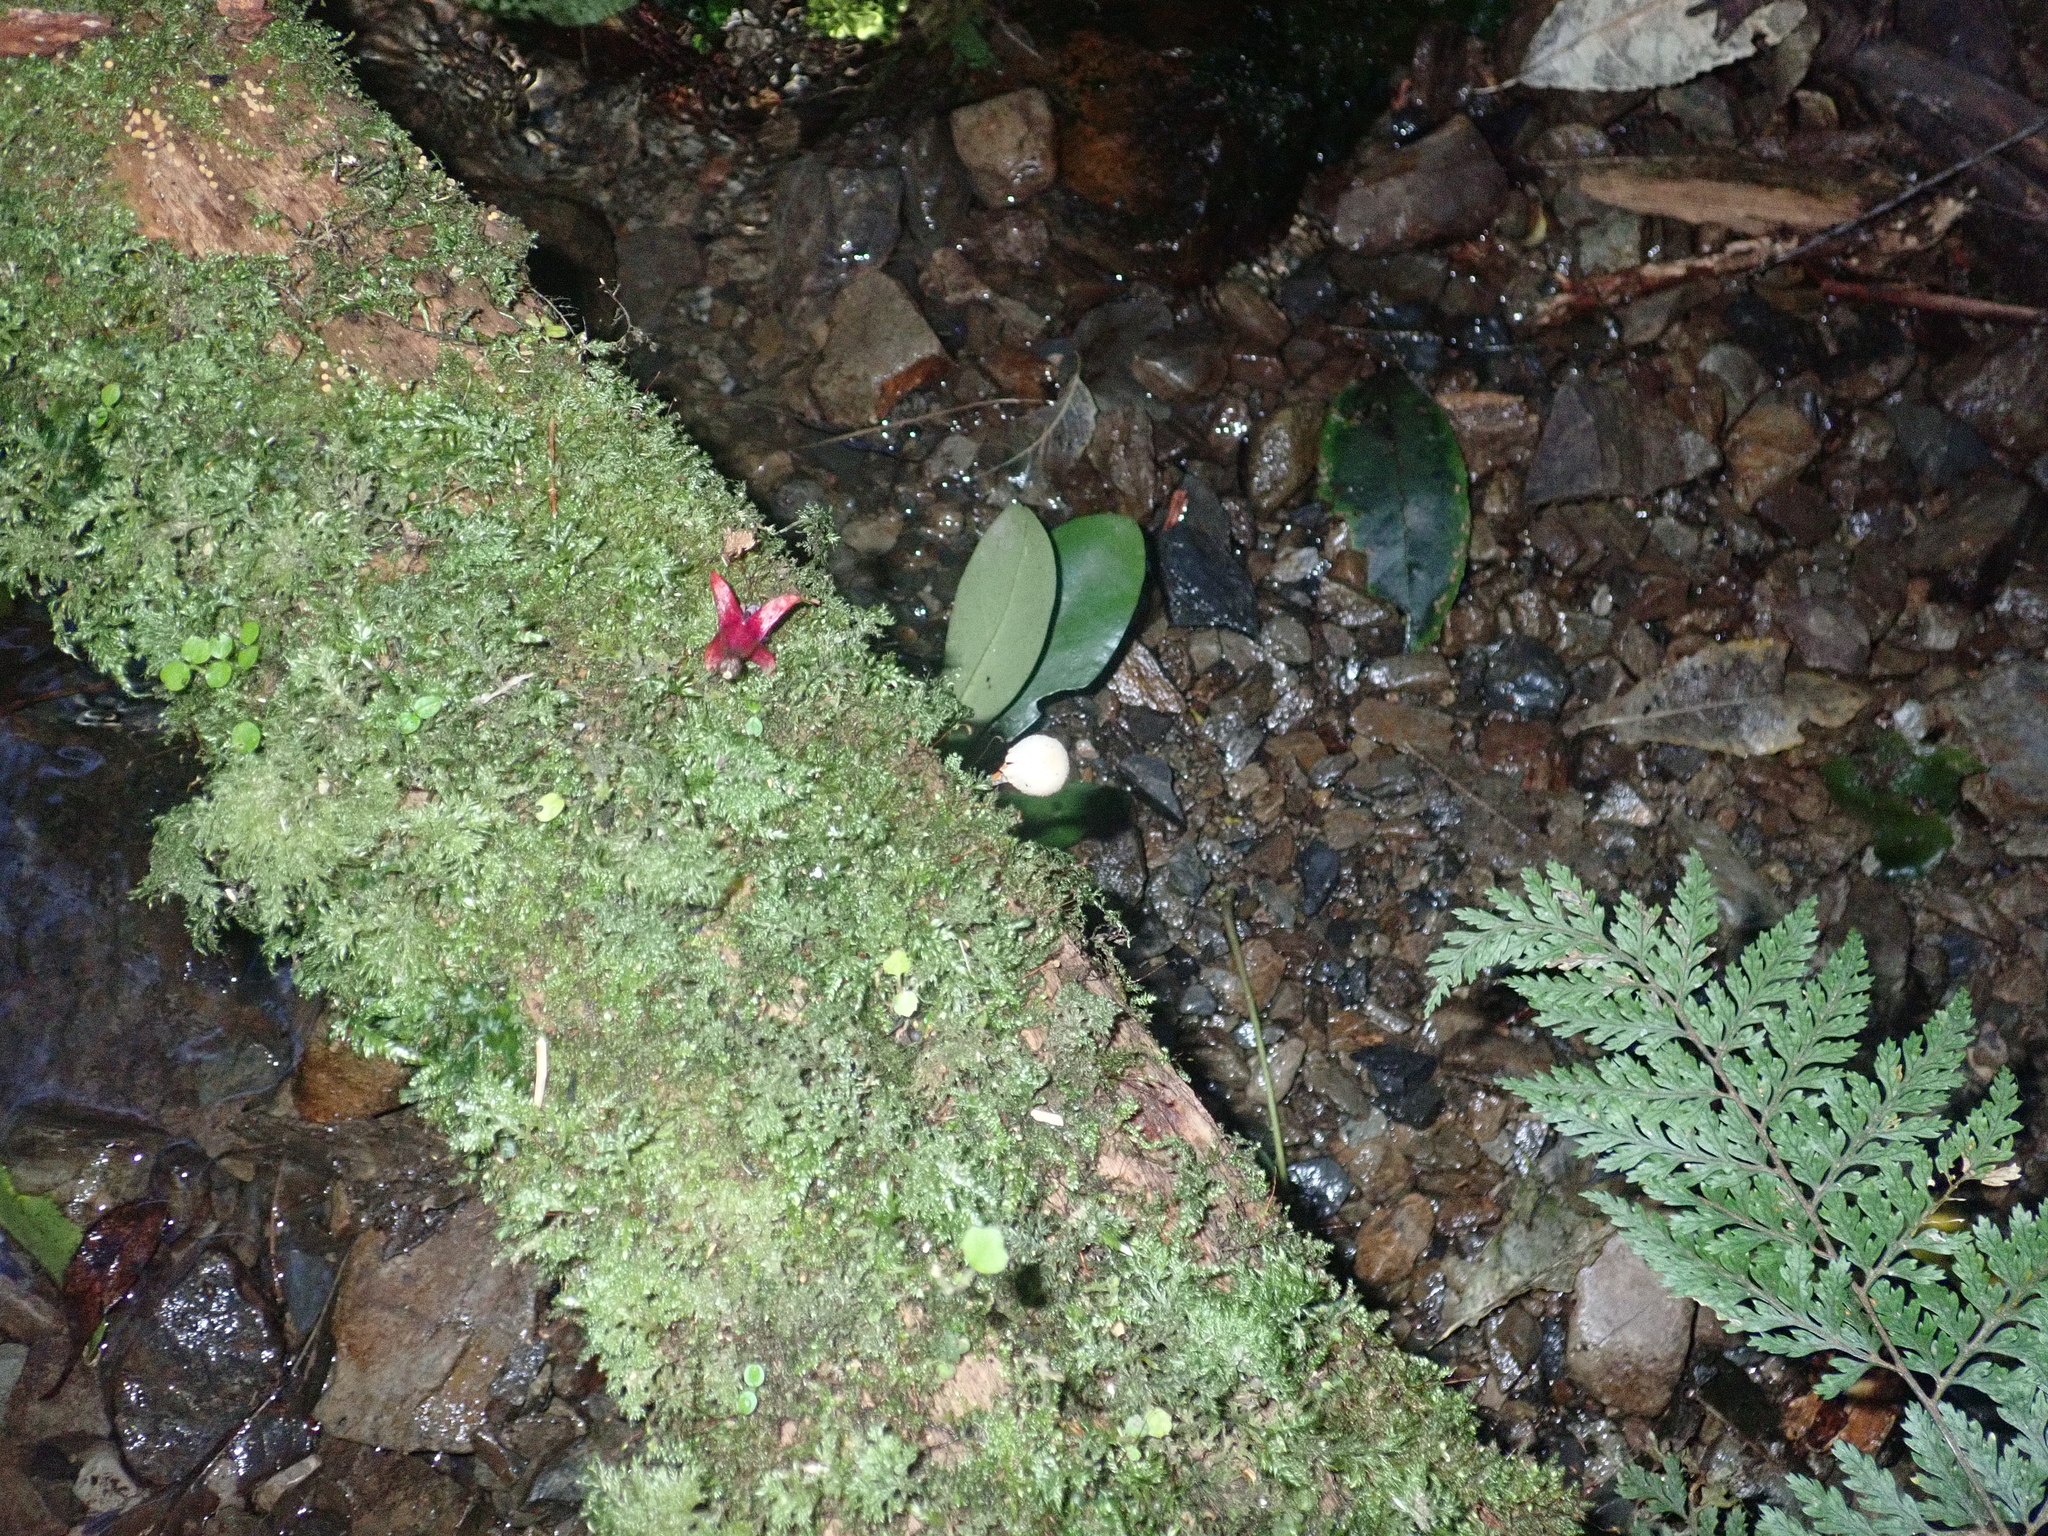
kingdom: Fungi
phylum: Basidiomycota
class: Agaricomycetes
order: Agaricales
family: Bolbitiaceae
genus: Tympanella
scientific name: Tympanella galanthina
